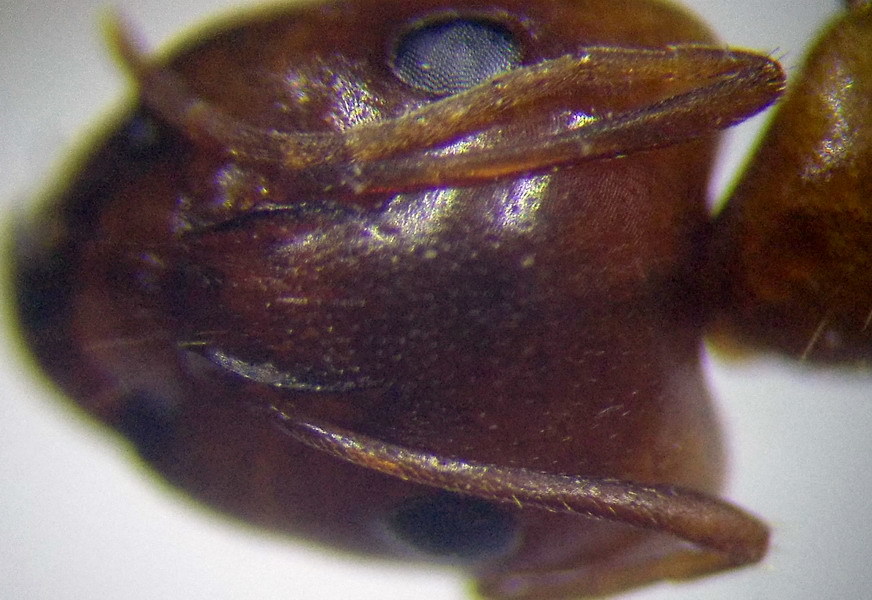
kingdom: Animalia
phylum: Arthropoda
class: Insecta
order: Hymenoptera
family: Formicidae
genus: Camponotus
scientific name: Camponotus fedtschenkoi
